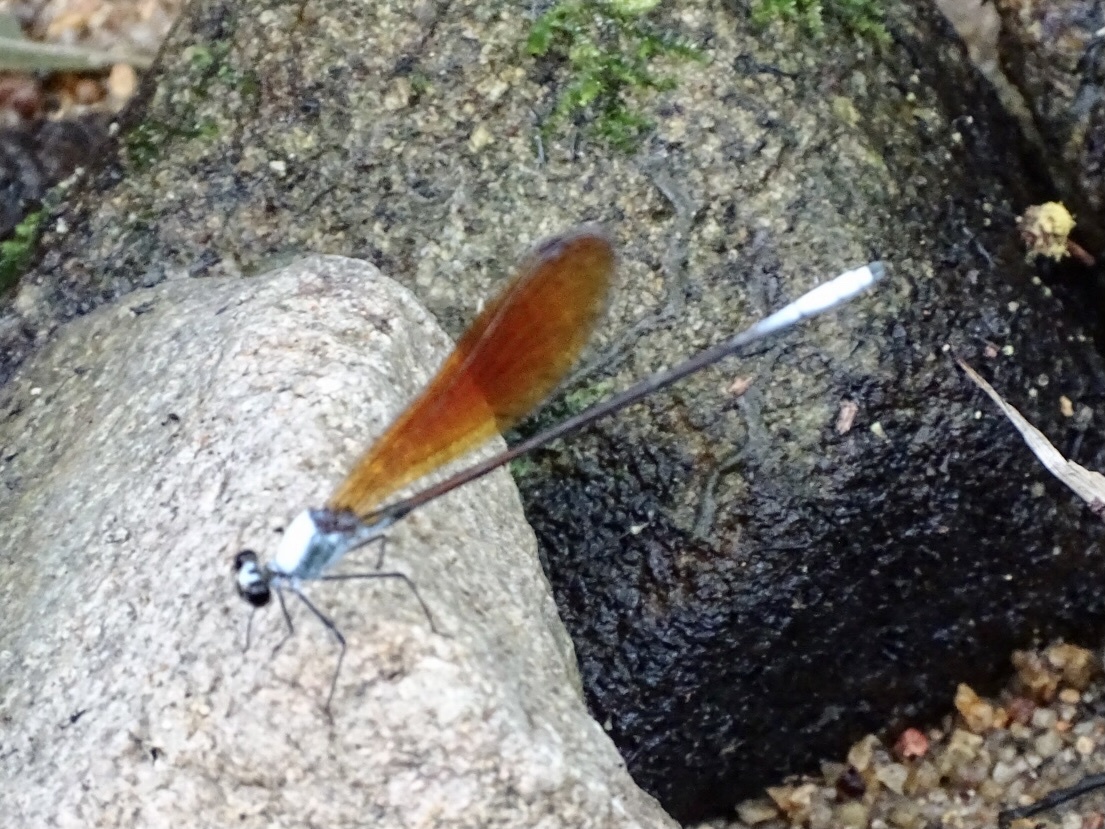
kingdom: Animalia
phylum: Arthropoda
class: Insecta
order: Odonata
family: Calopterygidae
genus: Mnais
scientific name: Mnais mneme
